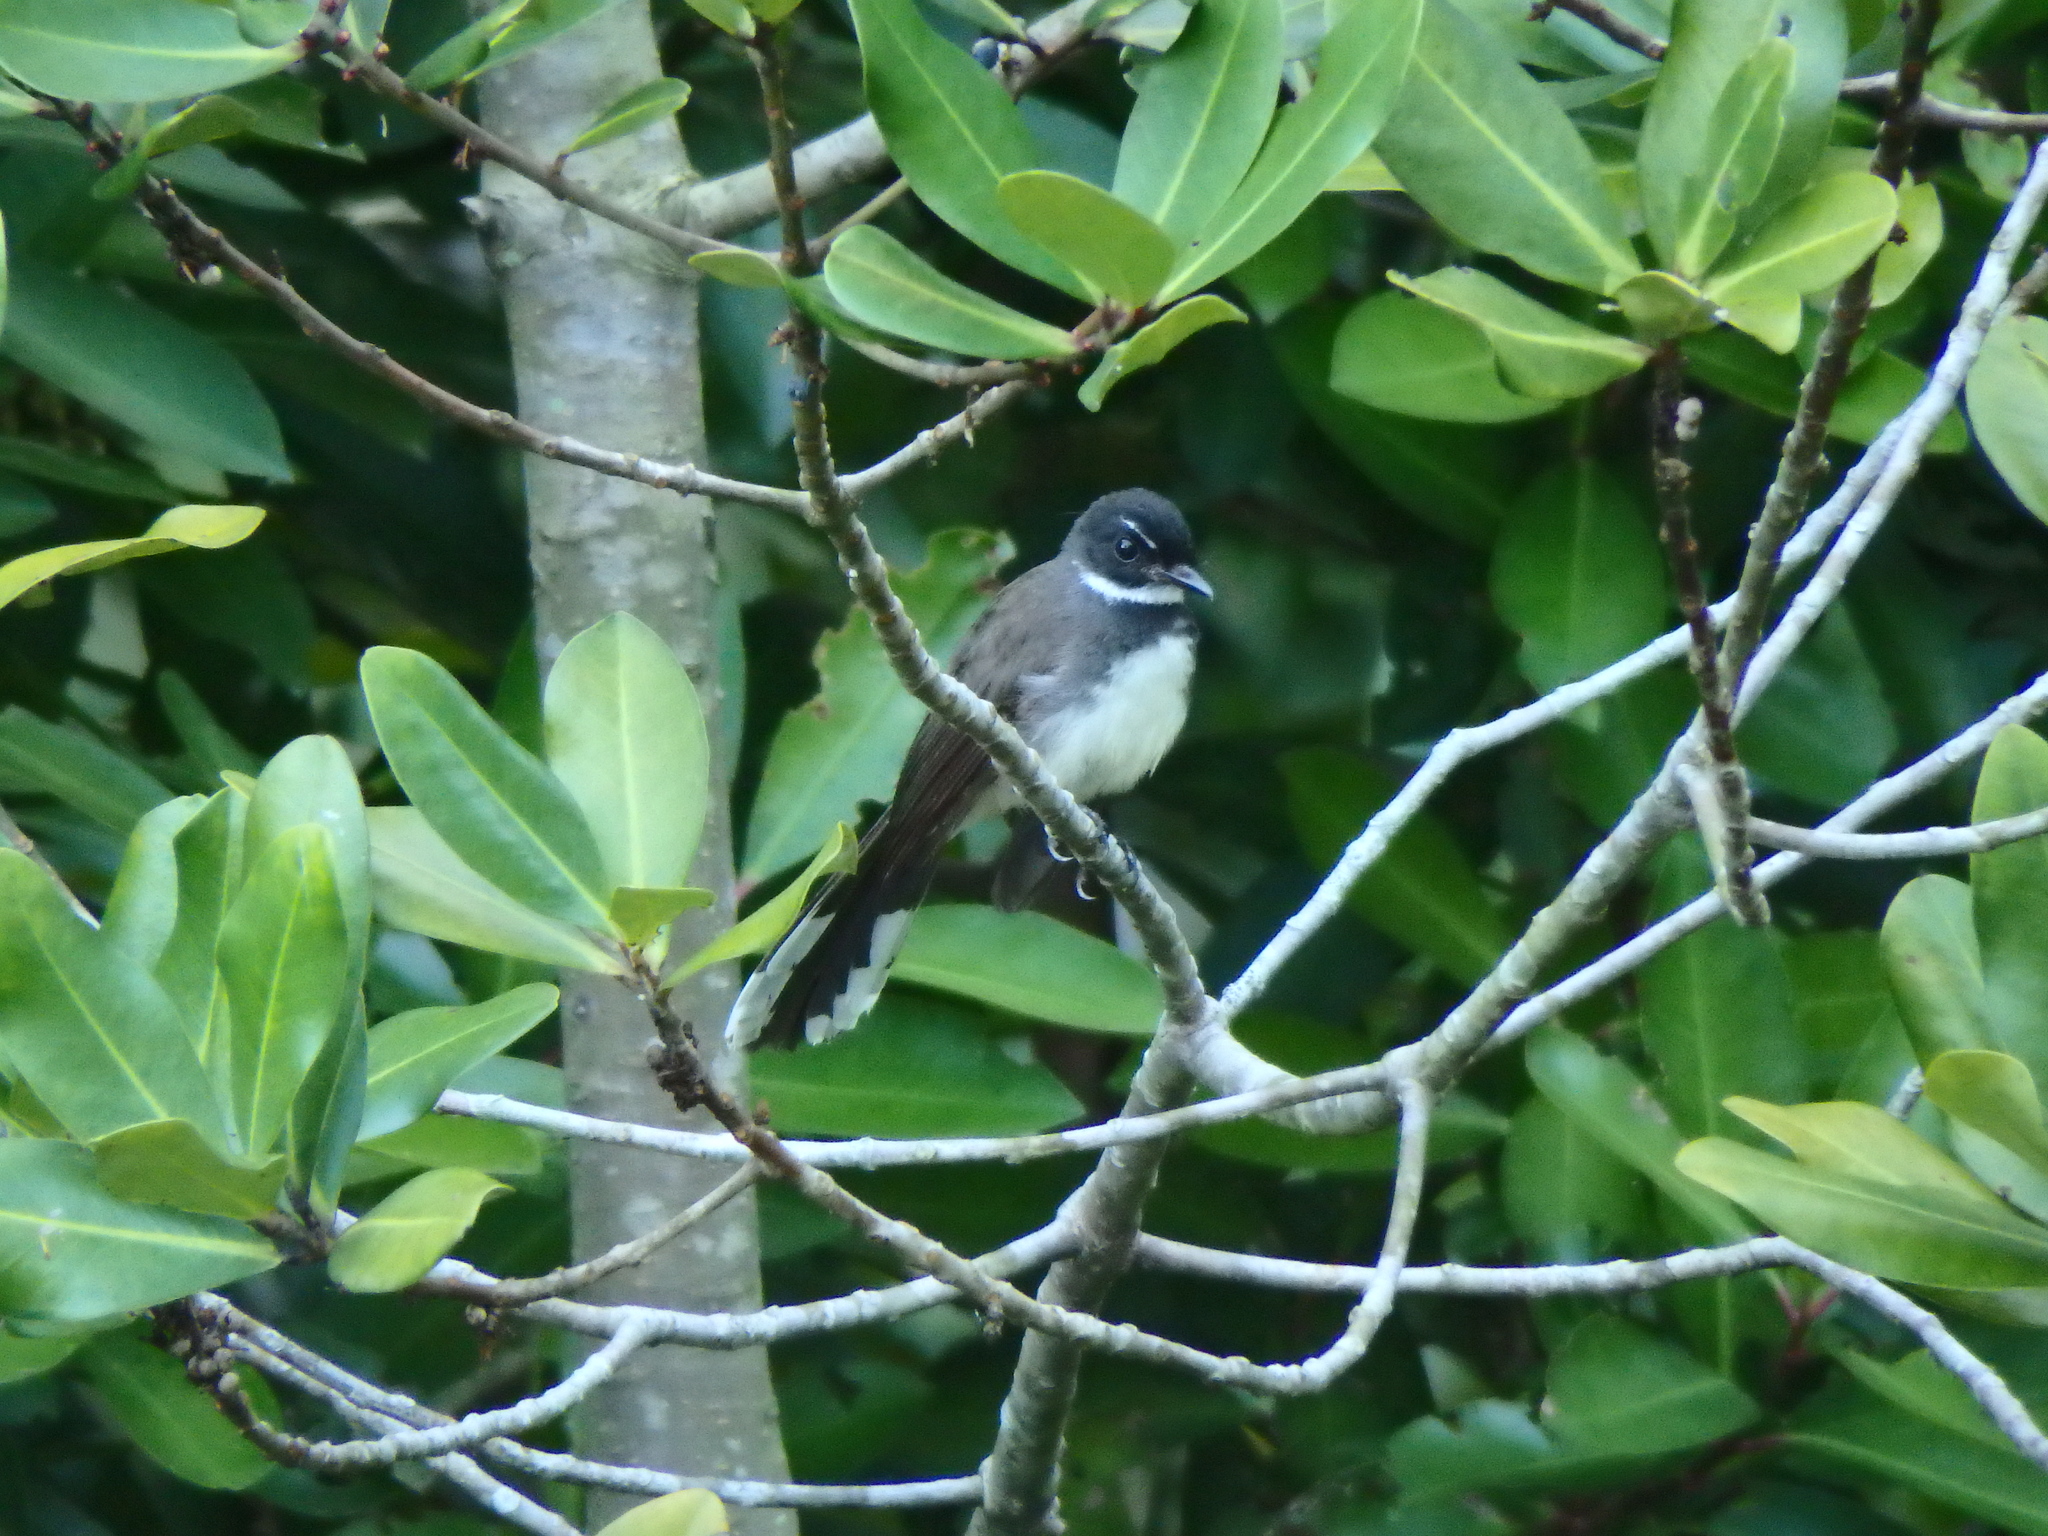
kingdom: Animalia
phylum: Chordata
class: Aves
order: Passeriformes
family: Rhipiduridae
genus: Rhipidura
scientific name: Rhipidura javanica
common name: Pied fantail
